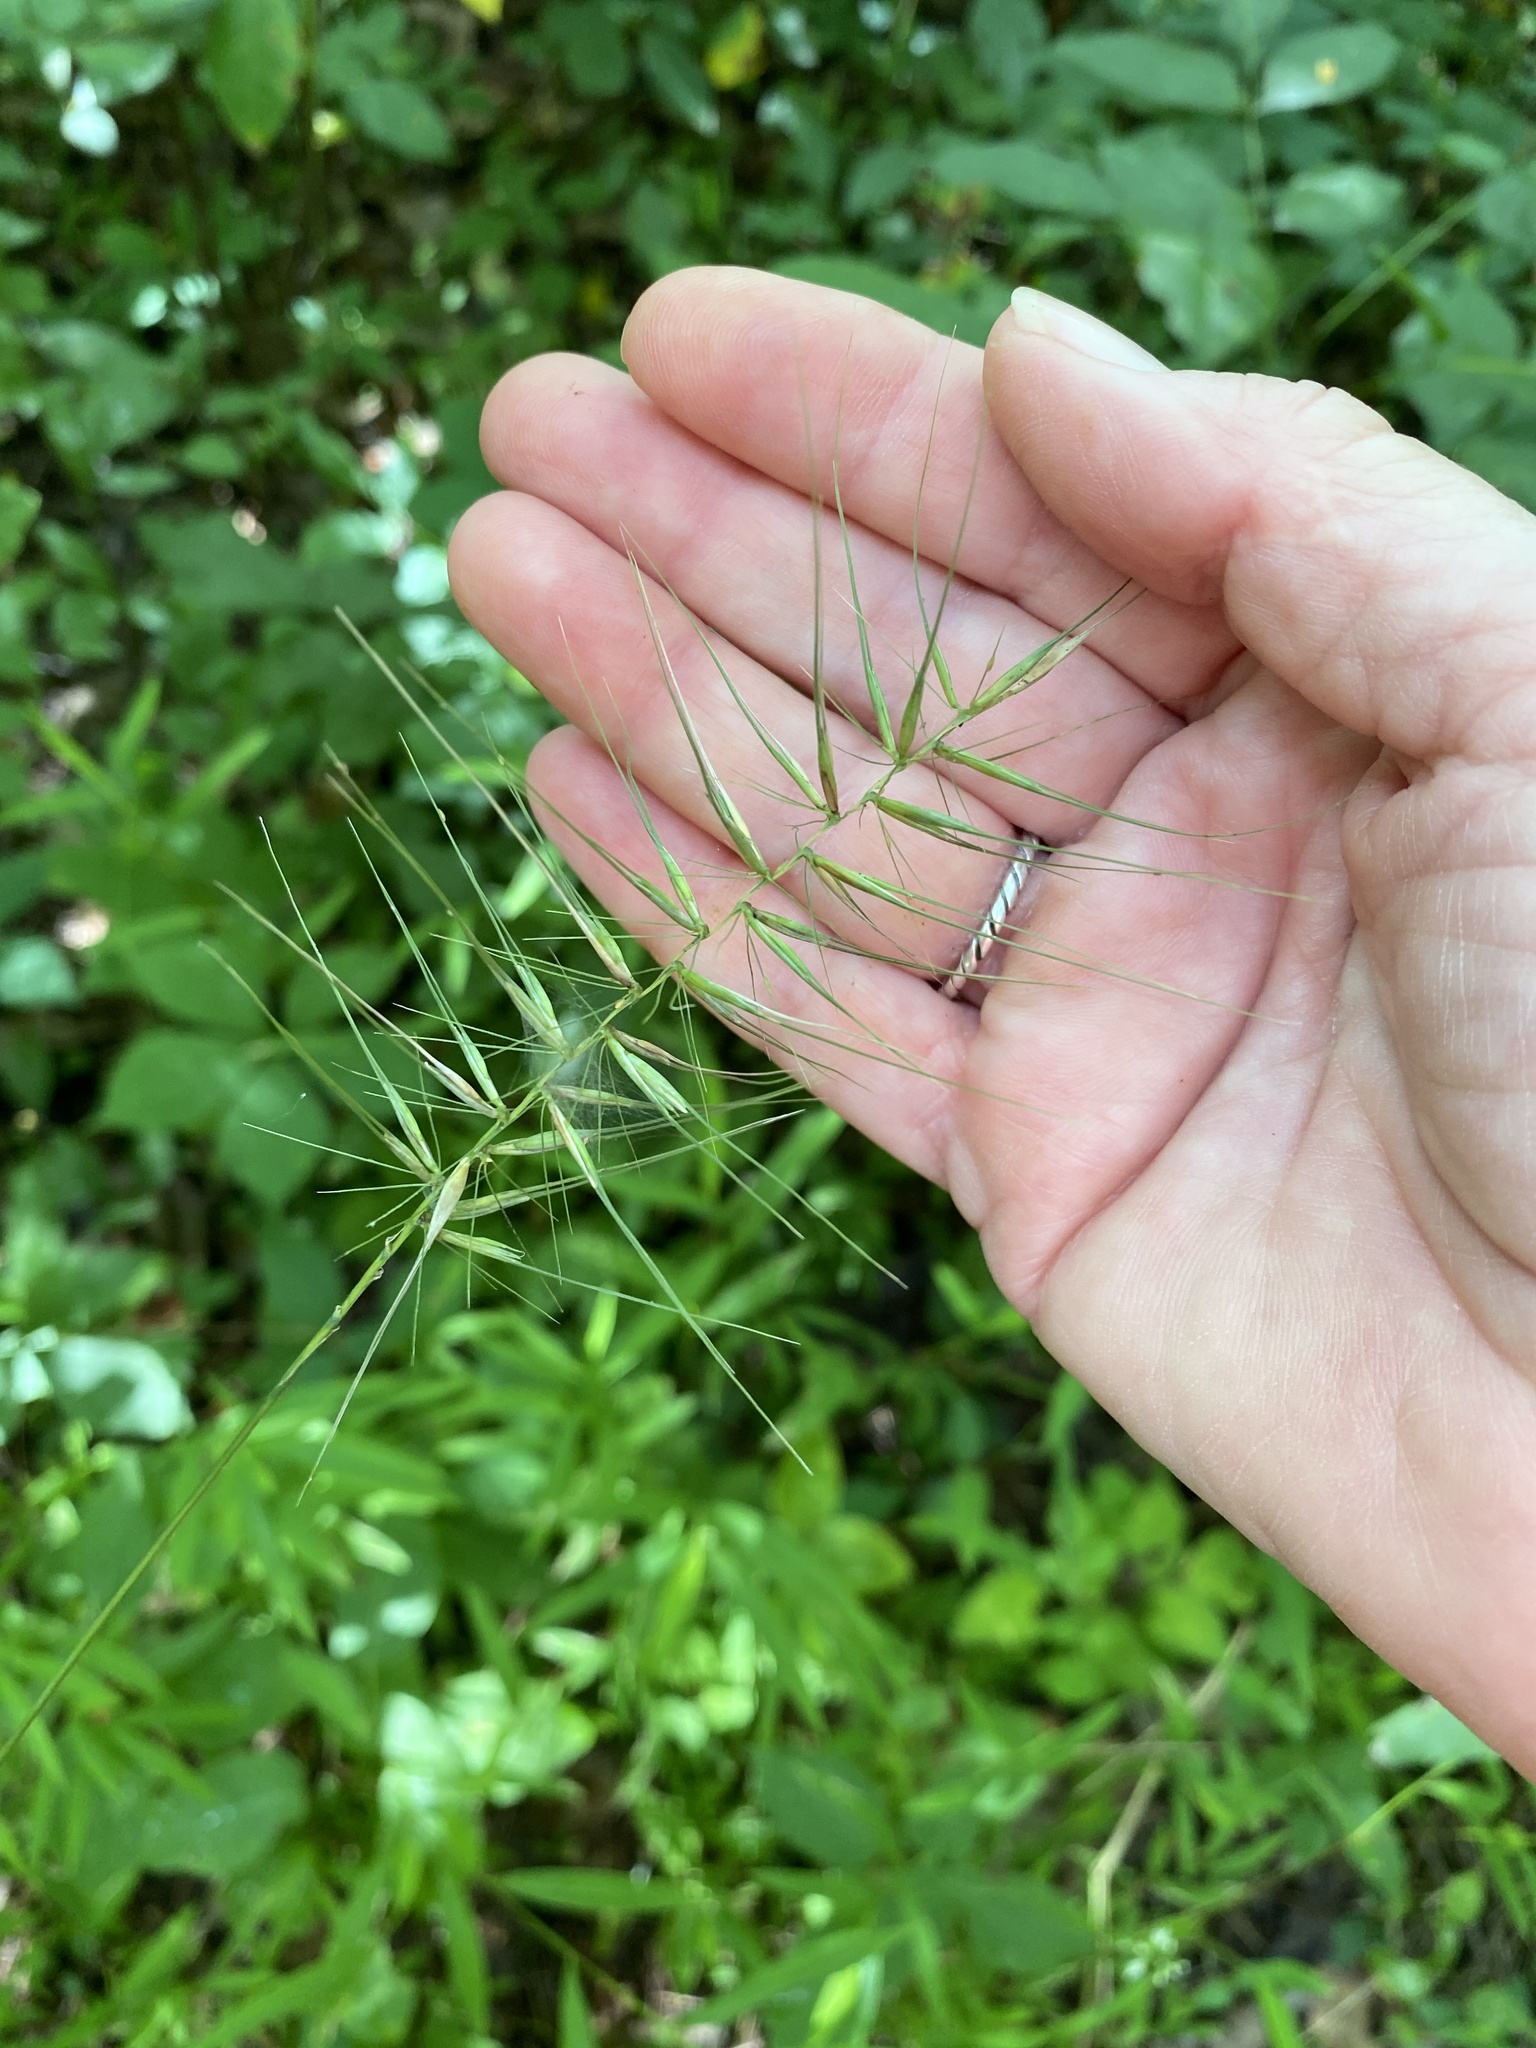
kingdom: Plantae
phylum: Tracheophyta
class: Liliopsida
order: Poales
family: Poaceae
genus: Elymus
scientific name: Elymus hystrix
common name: Bottlebrush grass
